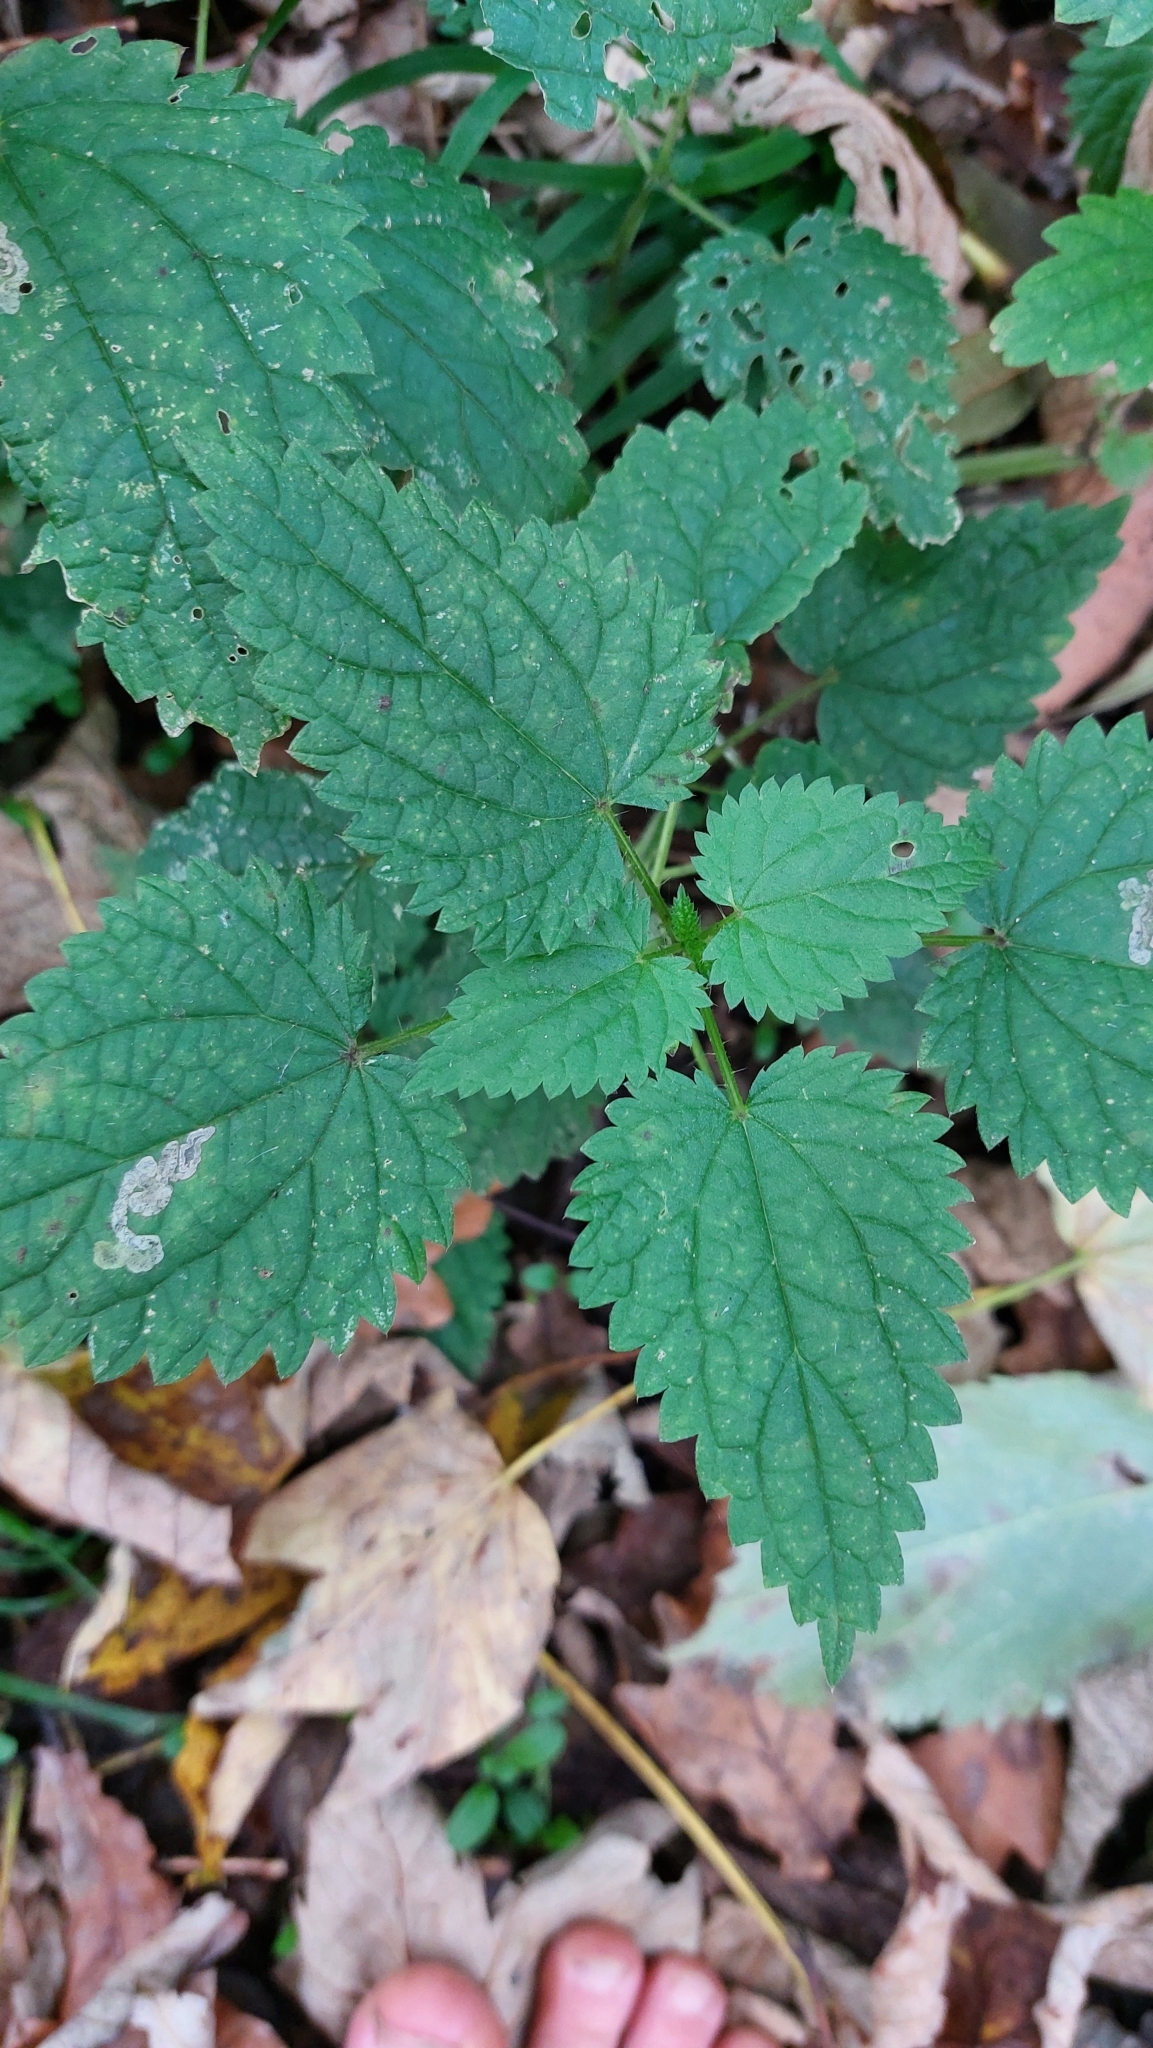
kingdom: Plantae
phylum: Tracheophyta
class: Magnoliopsida
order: Rosales
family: Urticaceae
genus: Urtica
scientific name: Urtica dioica
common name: Common nettle
